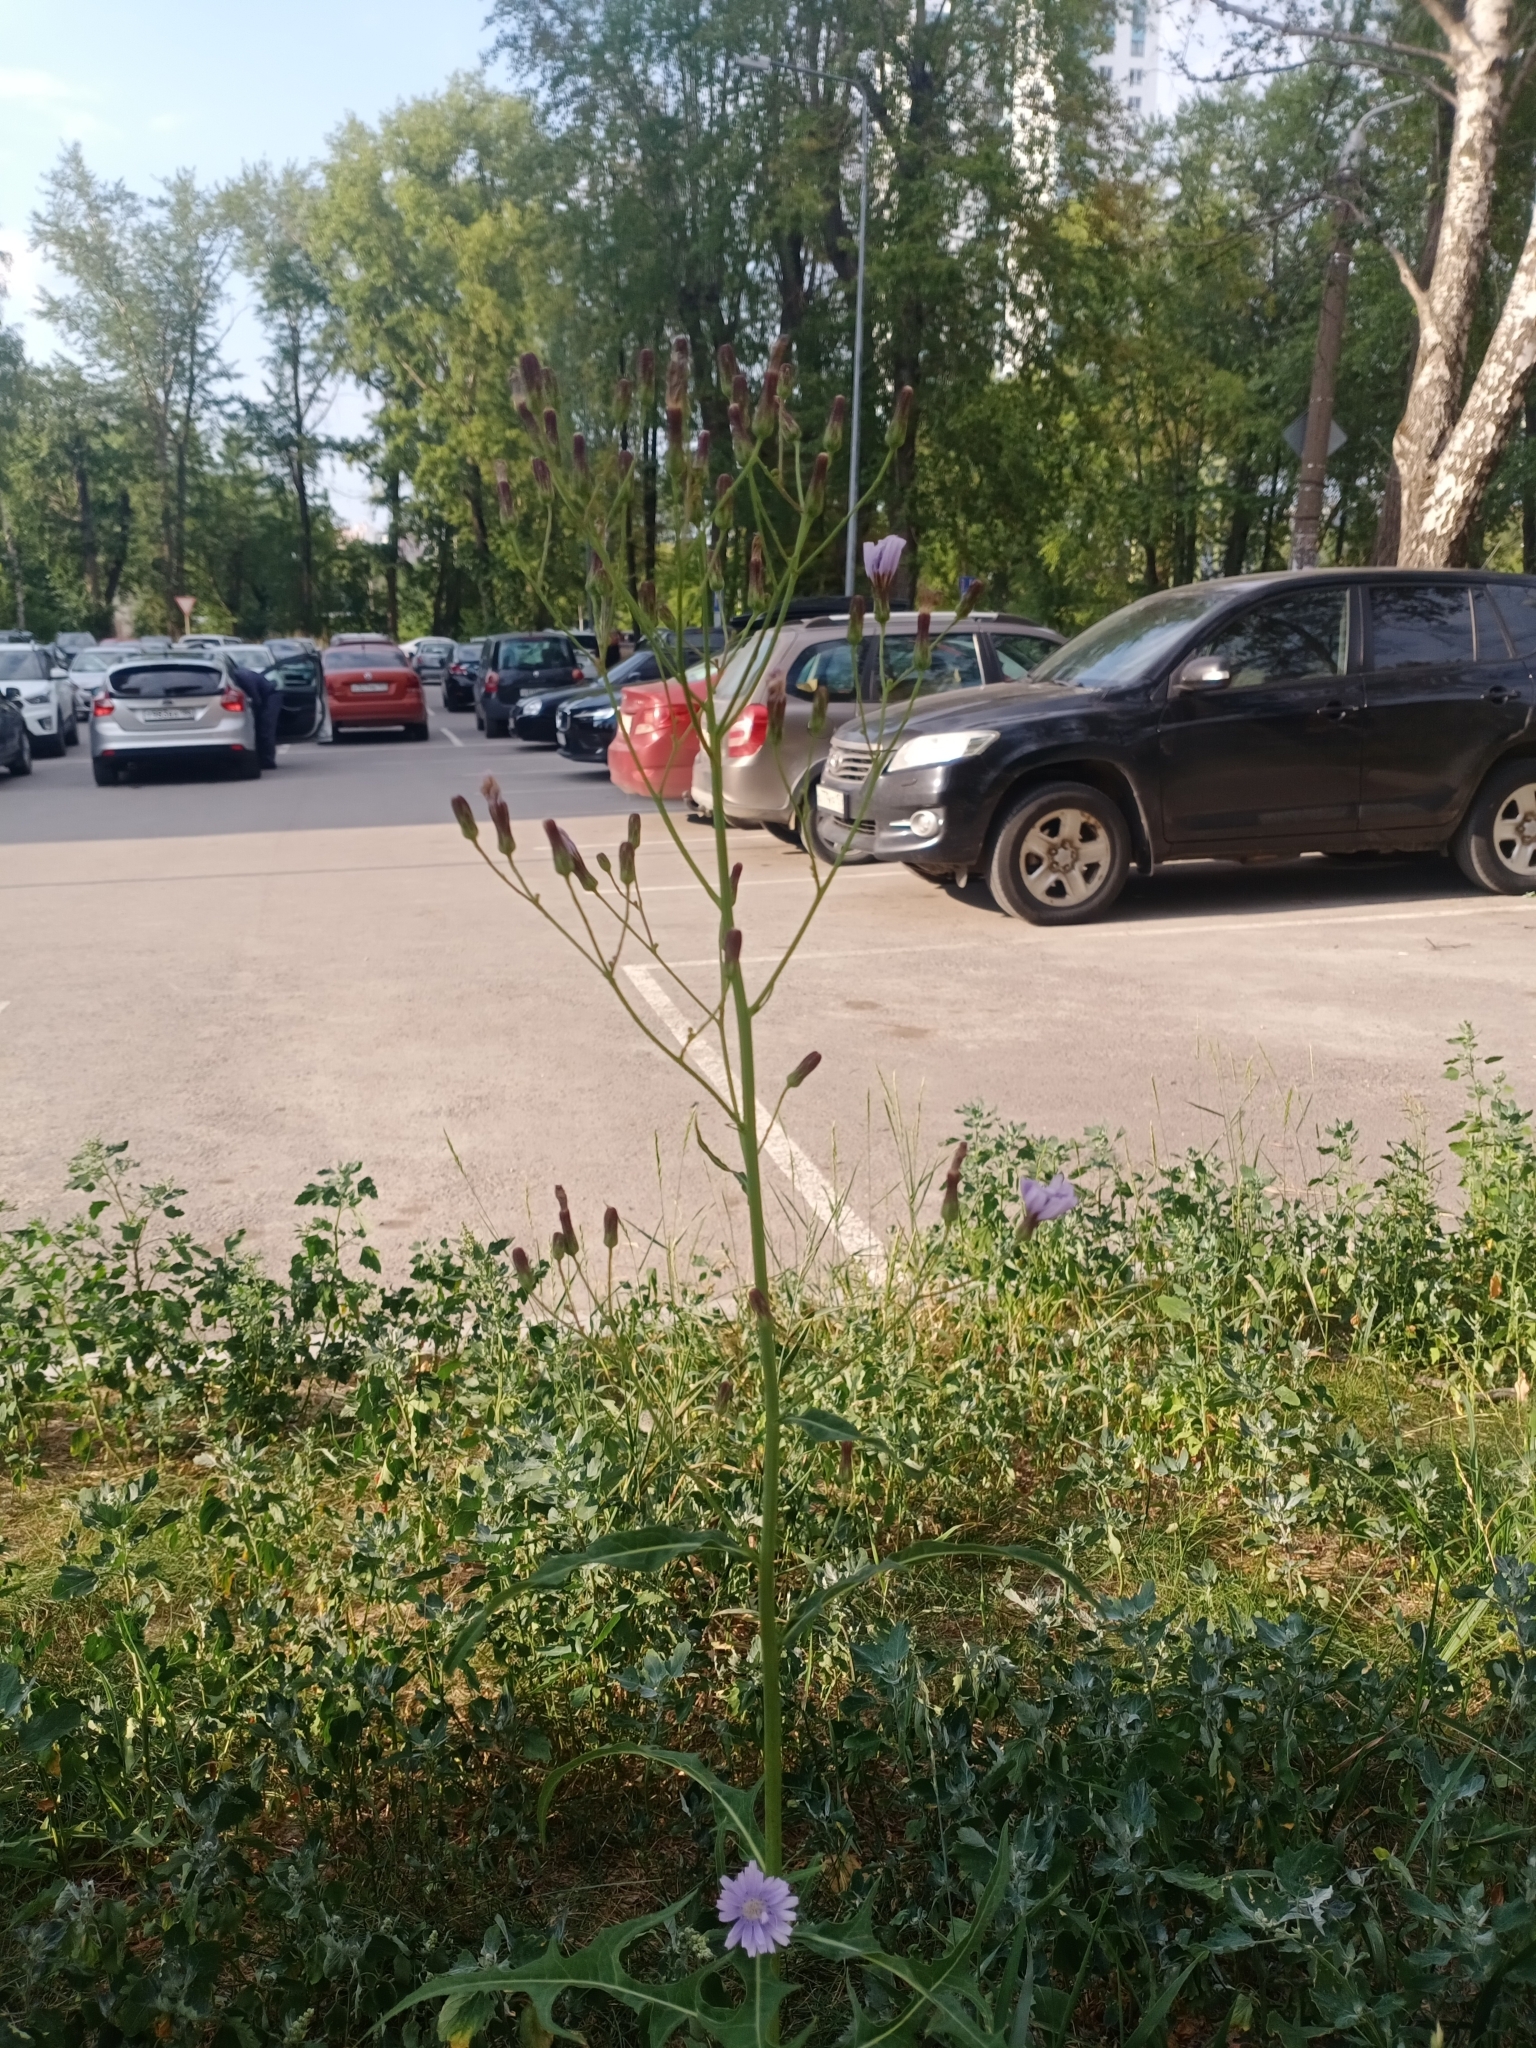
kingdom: Plantae
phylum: Tracheophyta
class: Magnoliopsida
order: Asterales
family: Asteraceae
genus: Lactuca
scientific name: Lactuca tatarica
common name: Blue lettuce
